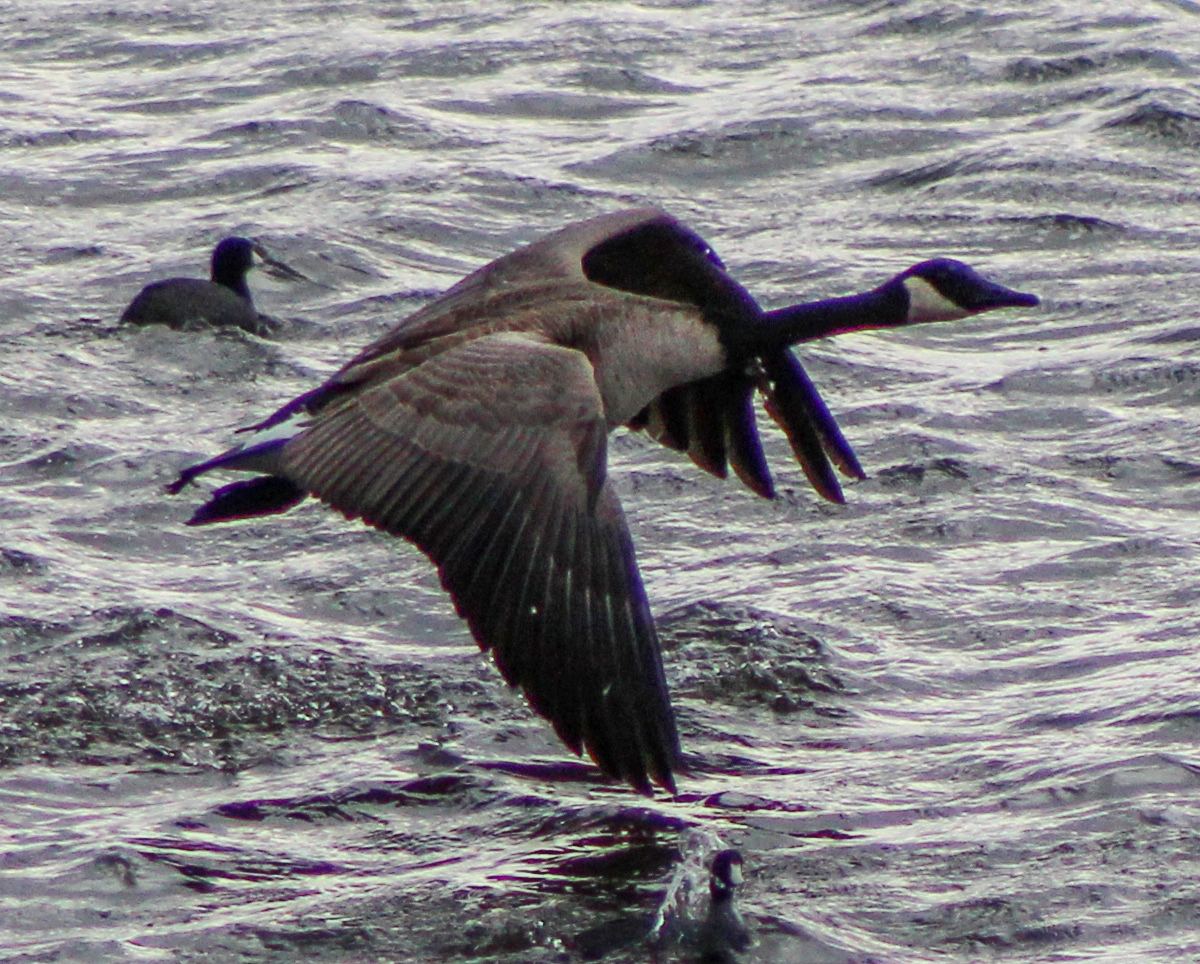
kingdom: Animalia
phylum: Chordata
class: Aves
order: Anseriformes
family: Anatidae
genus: Branta
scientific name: Branta canadensis
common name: Canada goose
